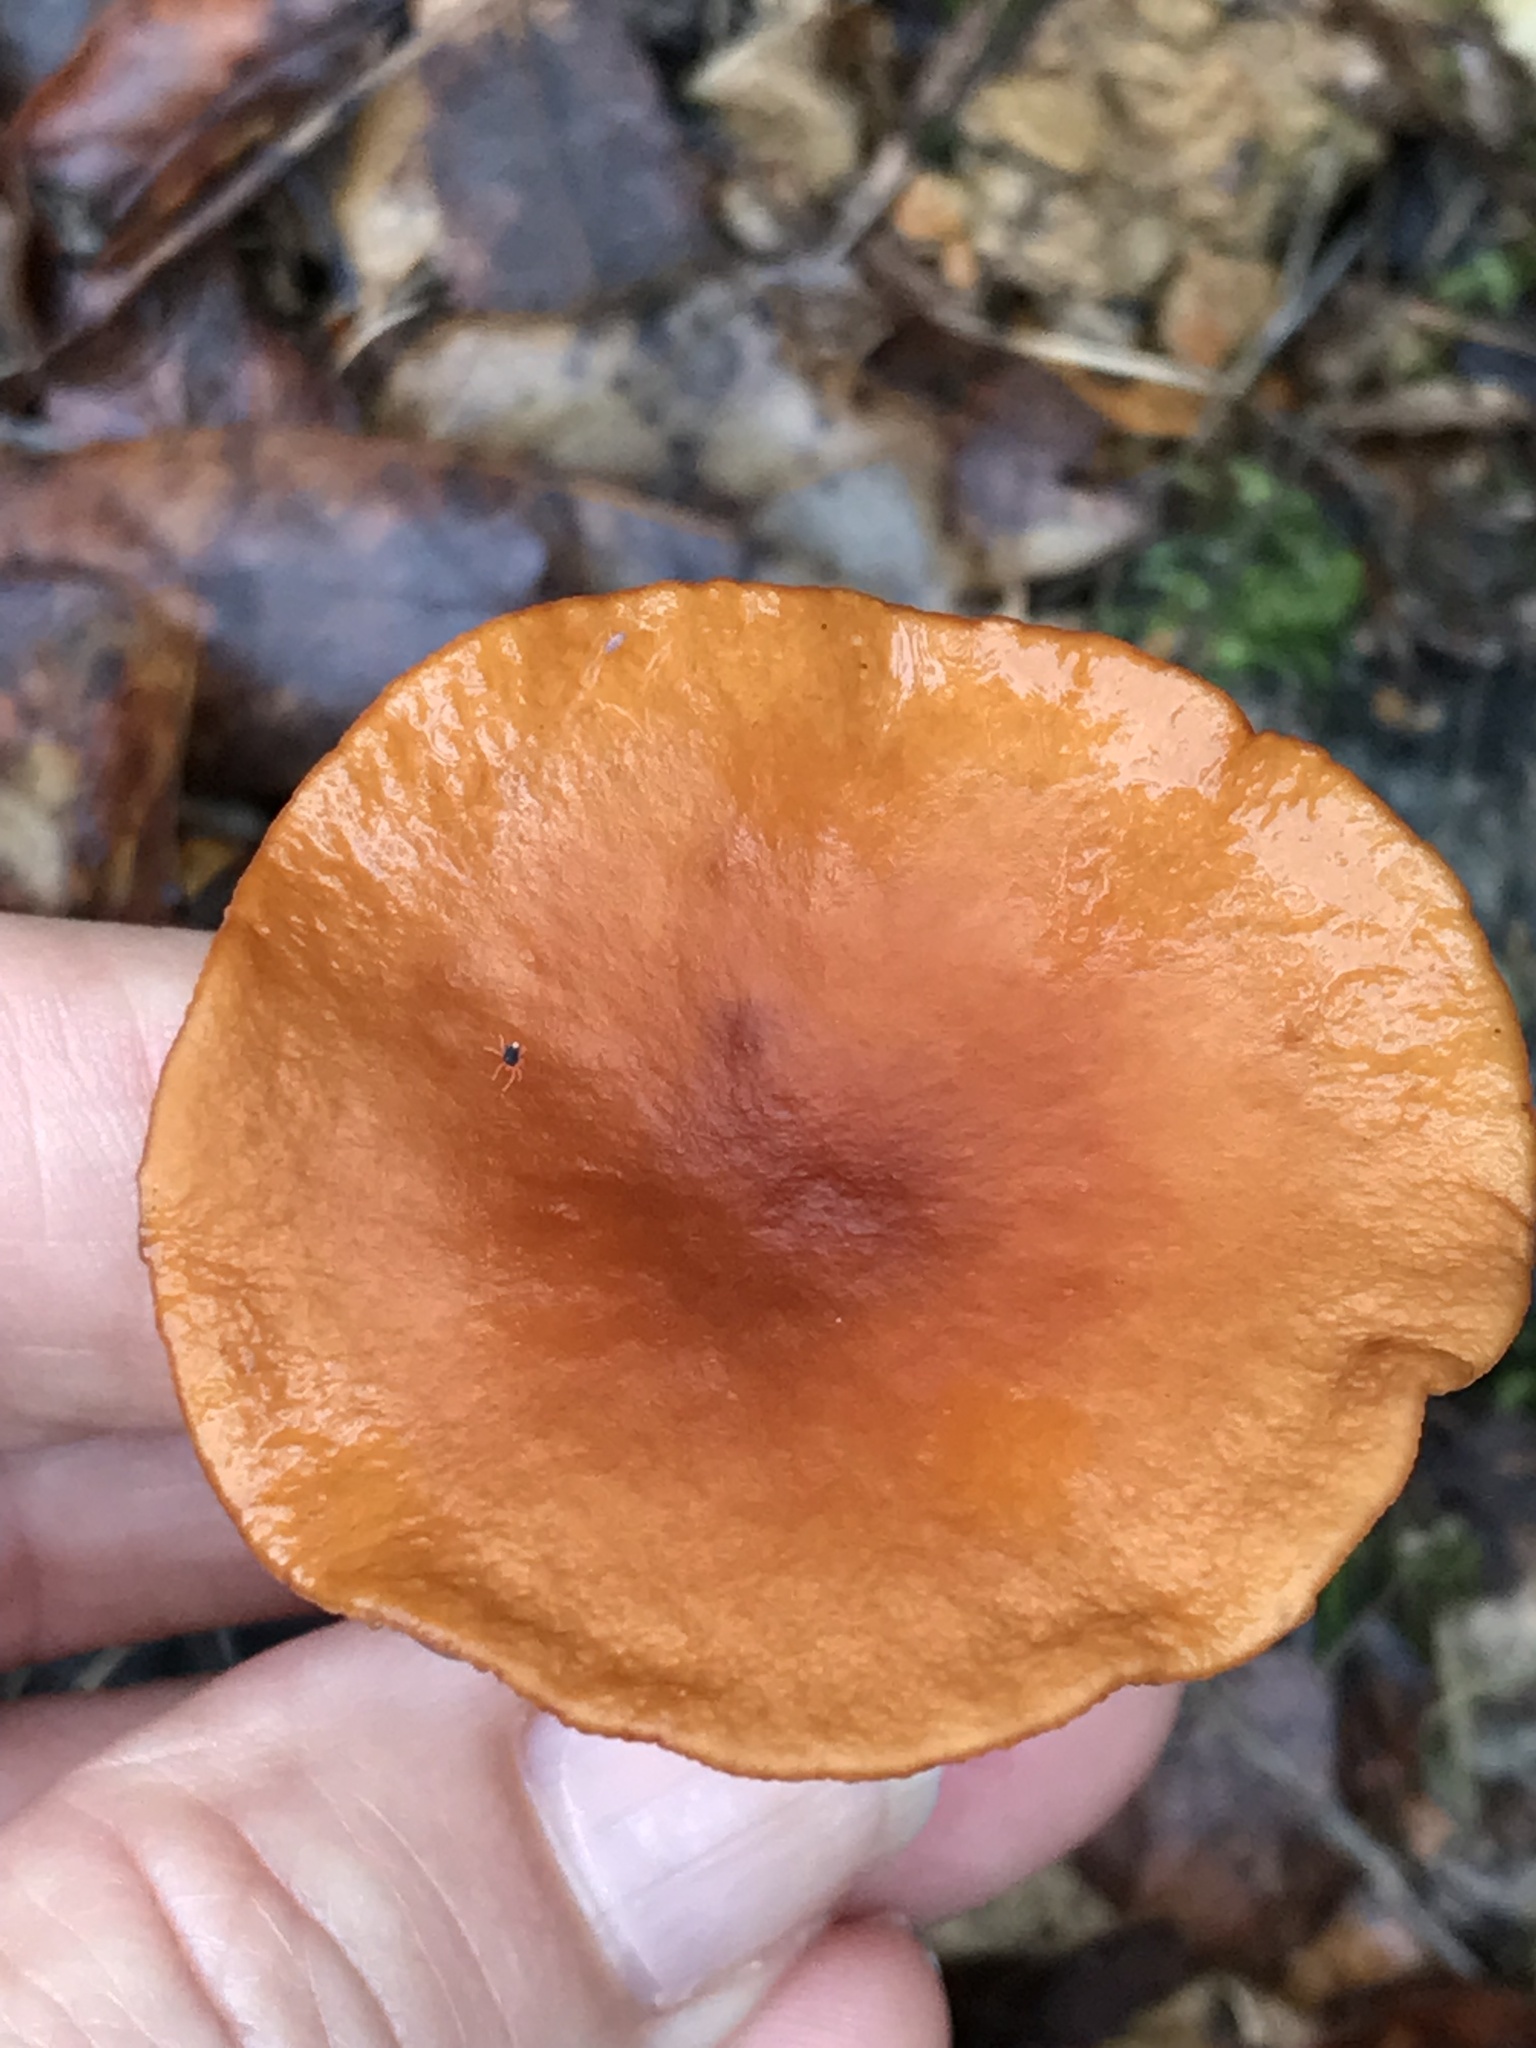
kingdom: Fungi
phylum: Basidiomycota
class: Agaricomycetes
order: Russulales
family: Russulaceae
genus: Lactarius
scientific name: Lactarius rubidus
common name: Candy cap
